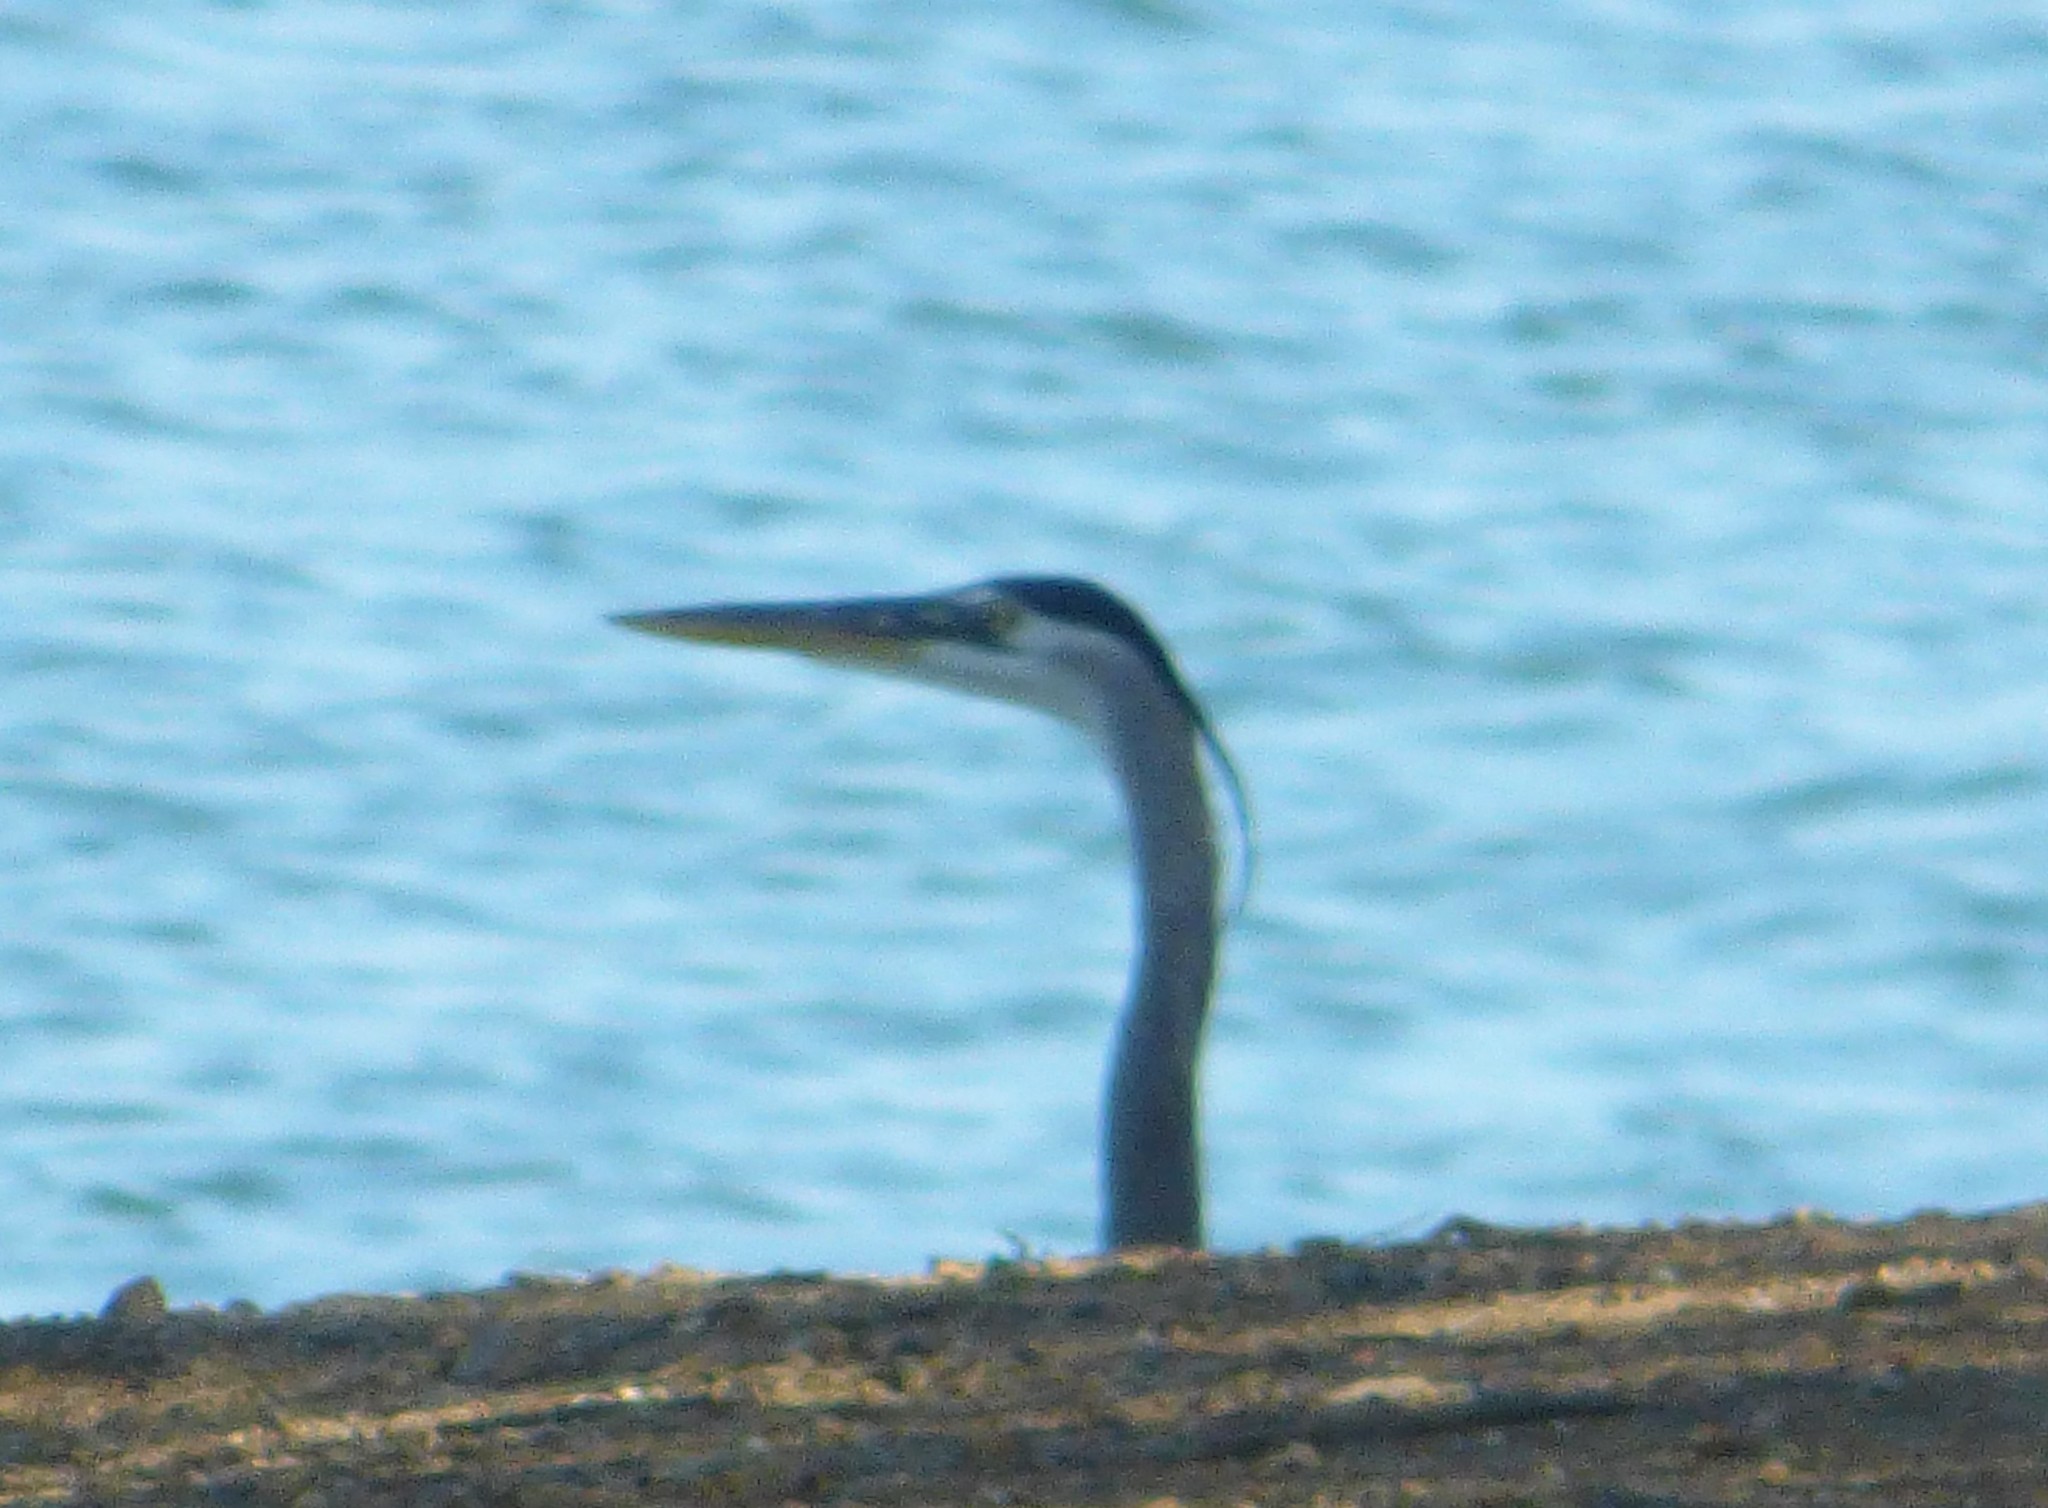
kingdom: Animalia
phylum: Chordata
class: Aves
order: Pelecaniformes
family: Ardeidae
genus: Ardea
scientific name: Ardea herodias
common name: Great blue heron
